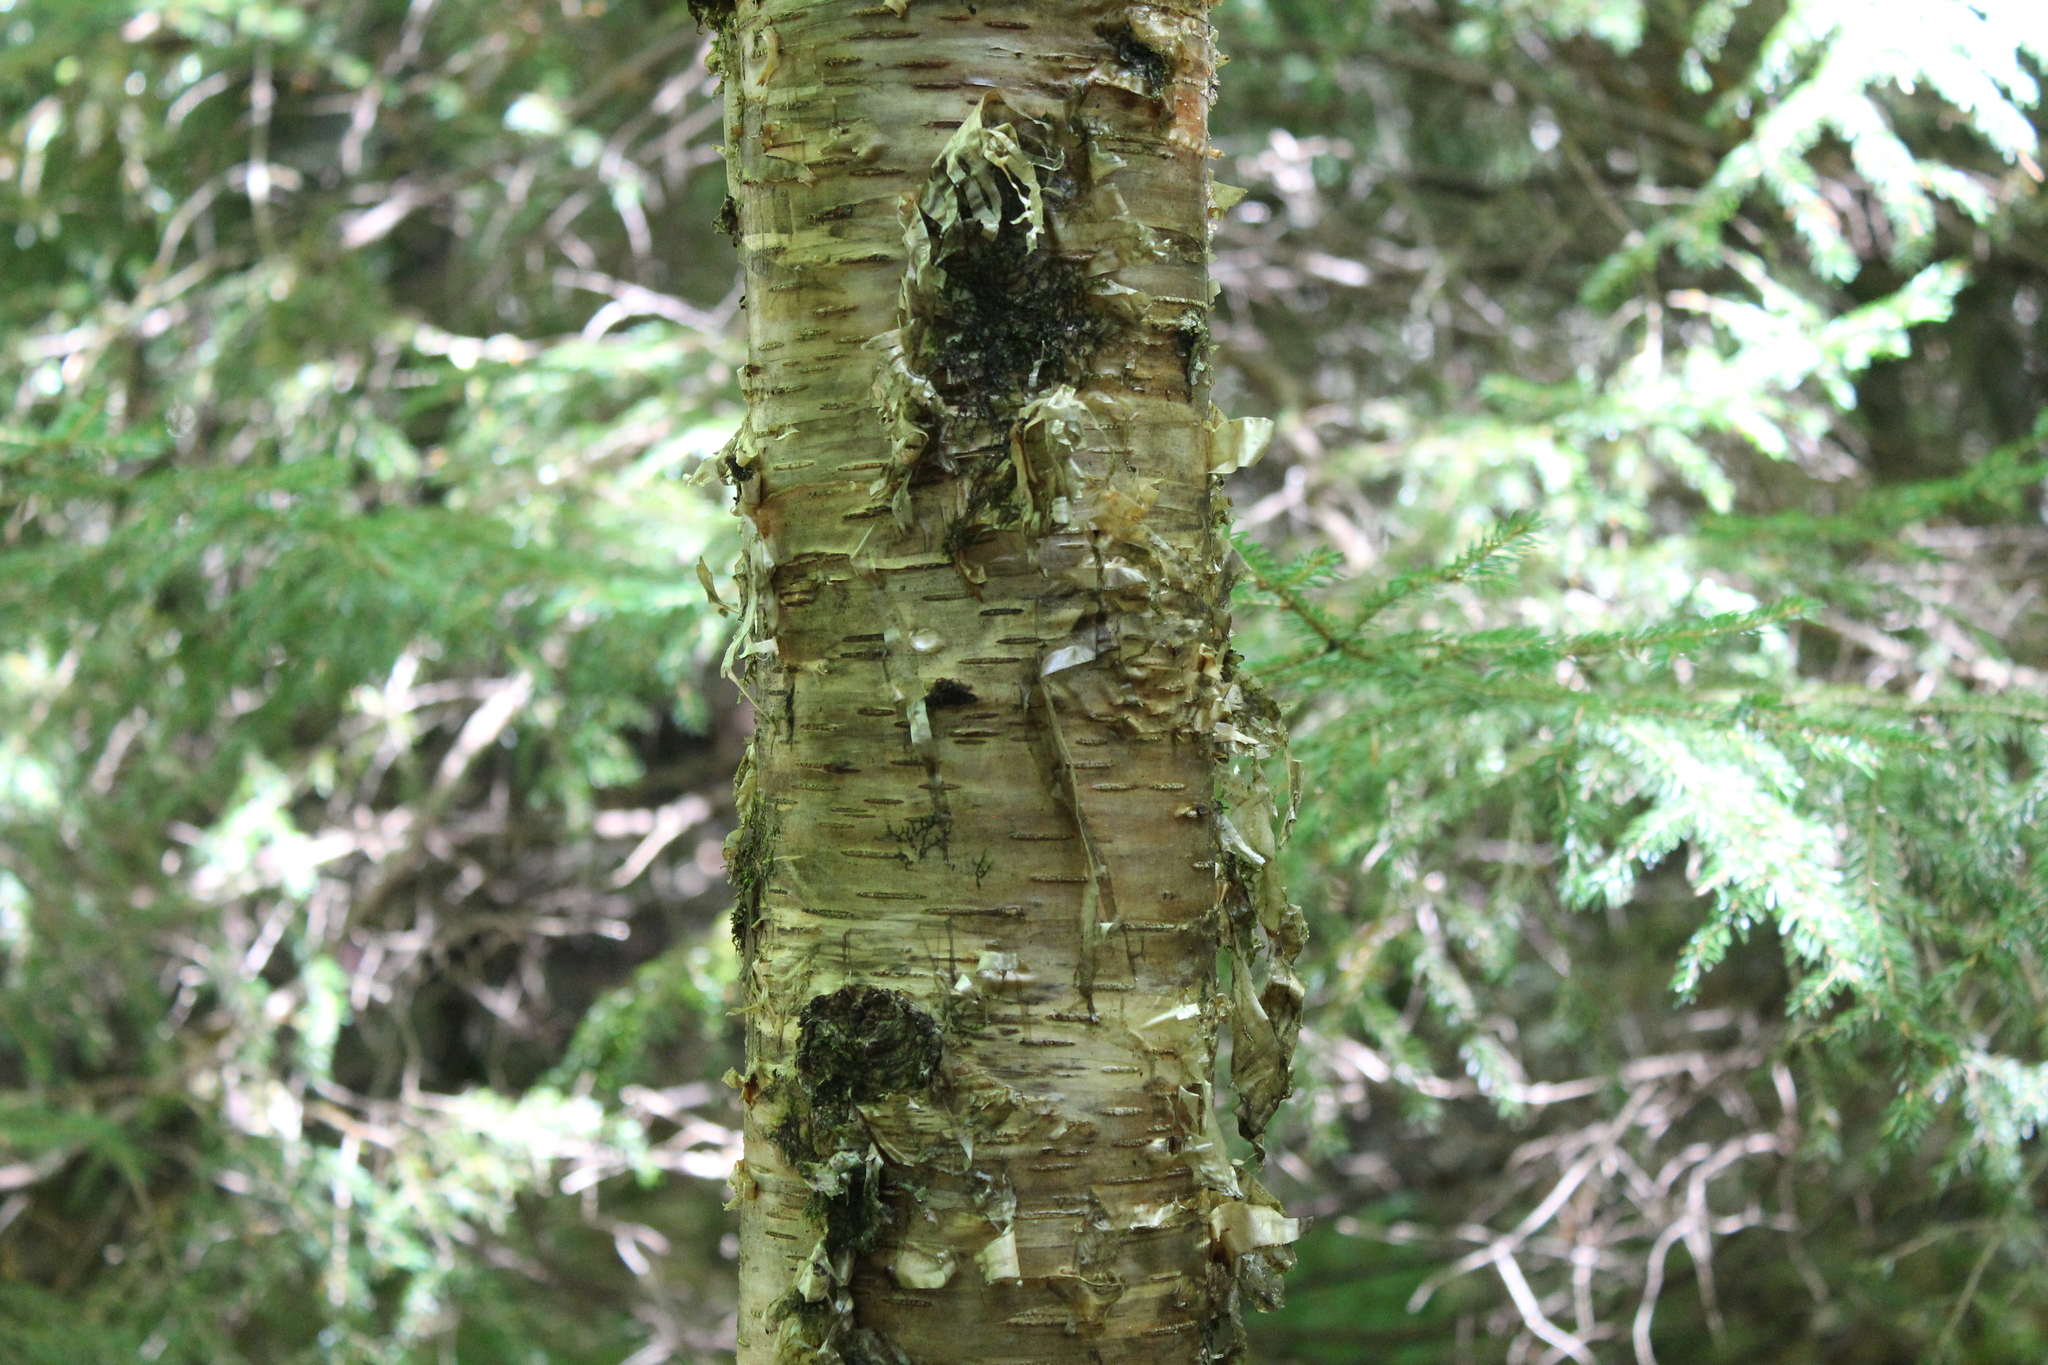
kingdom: Plantae
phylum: Tracheophyta
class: Magnoliopsida
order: Fagales
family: Betulaceae
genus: Betula
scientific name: Betula alleghaniensis
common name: Yellow birch
